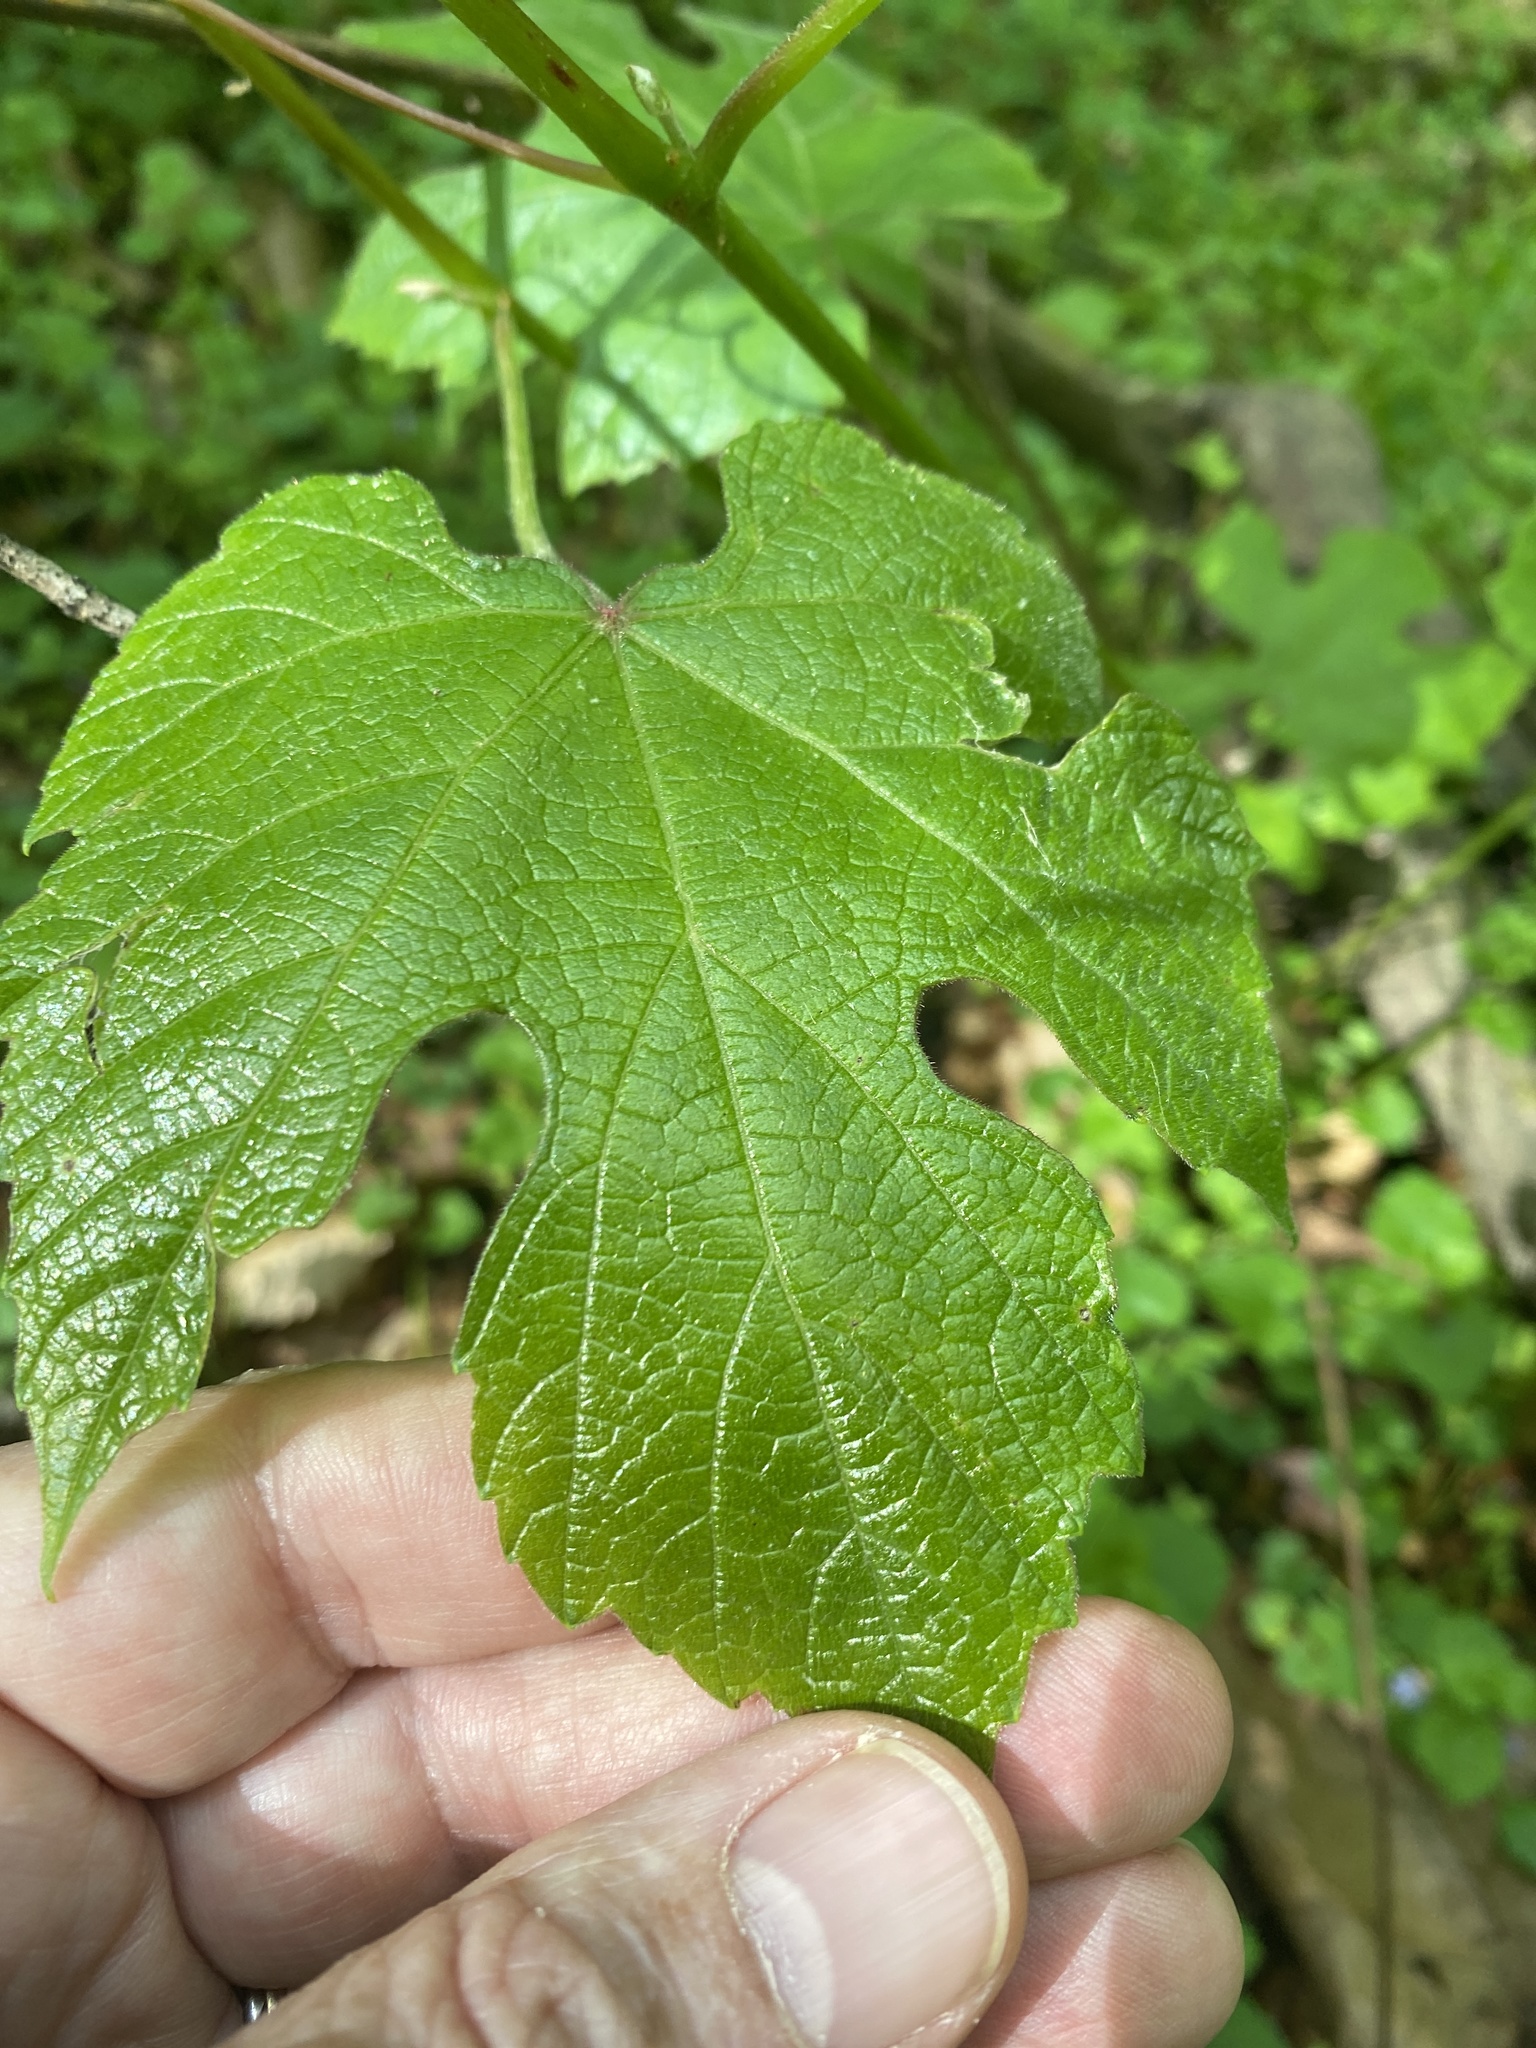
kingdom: Plantae
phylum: Tracheophyta
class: Magnoliopsida
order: Vitales
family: Vitaceae
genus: Vitis
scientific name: Vitis aestivalis
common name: Pigeon grape
